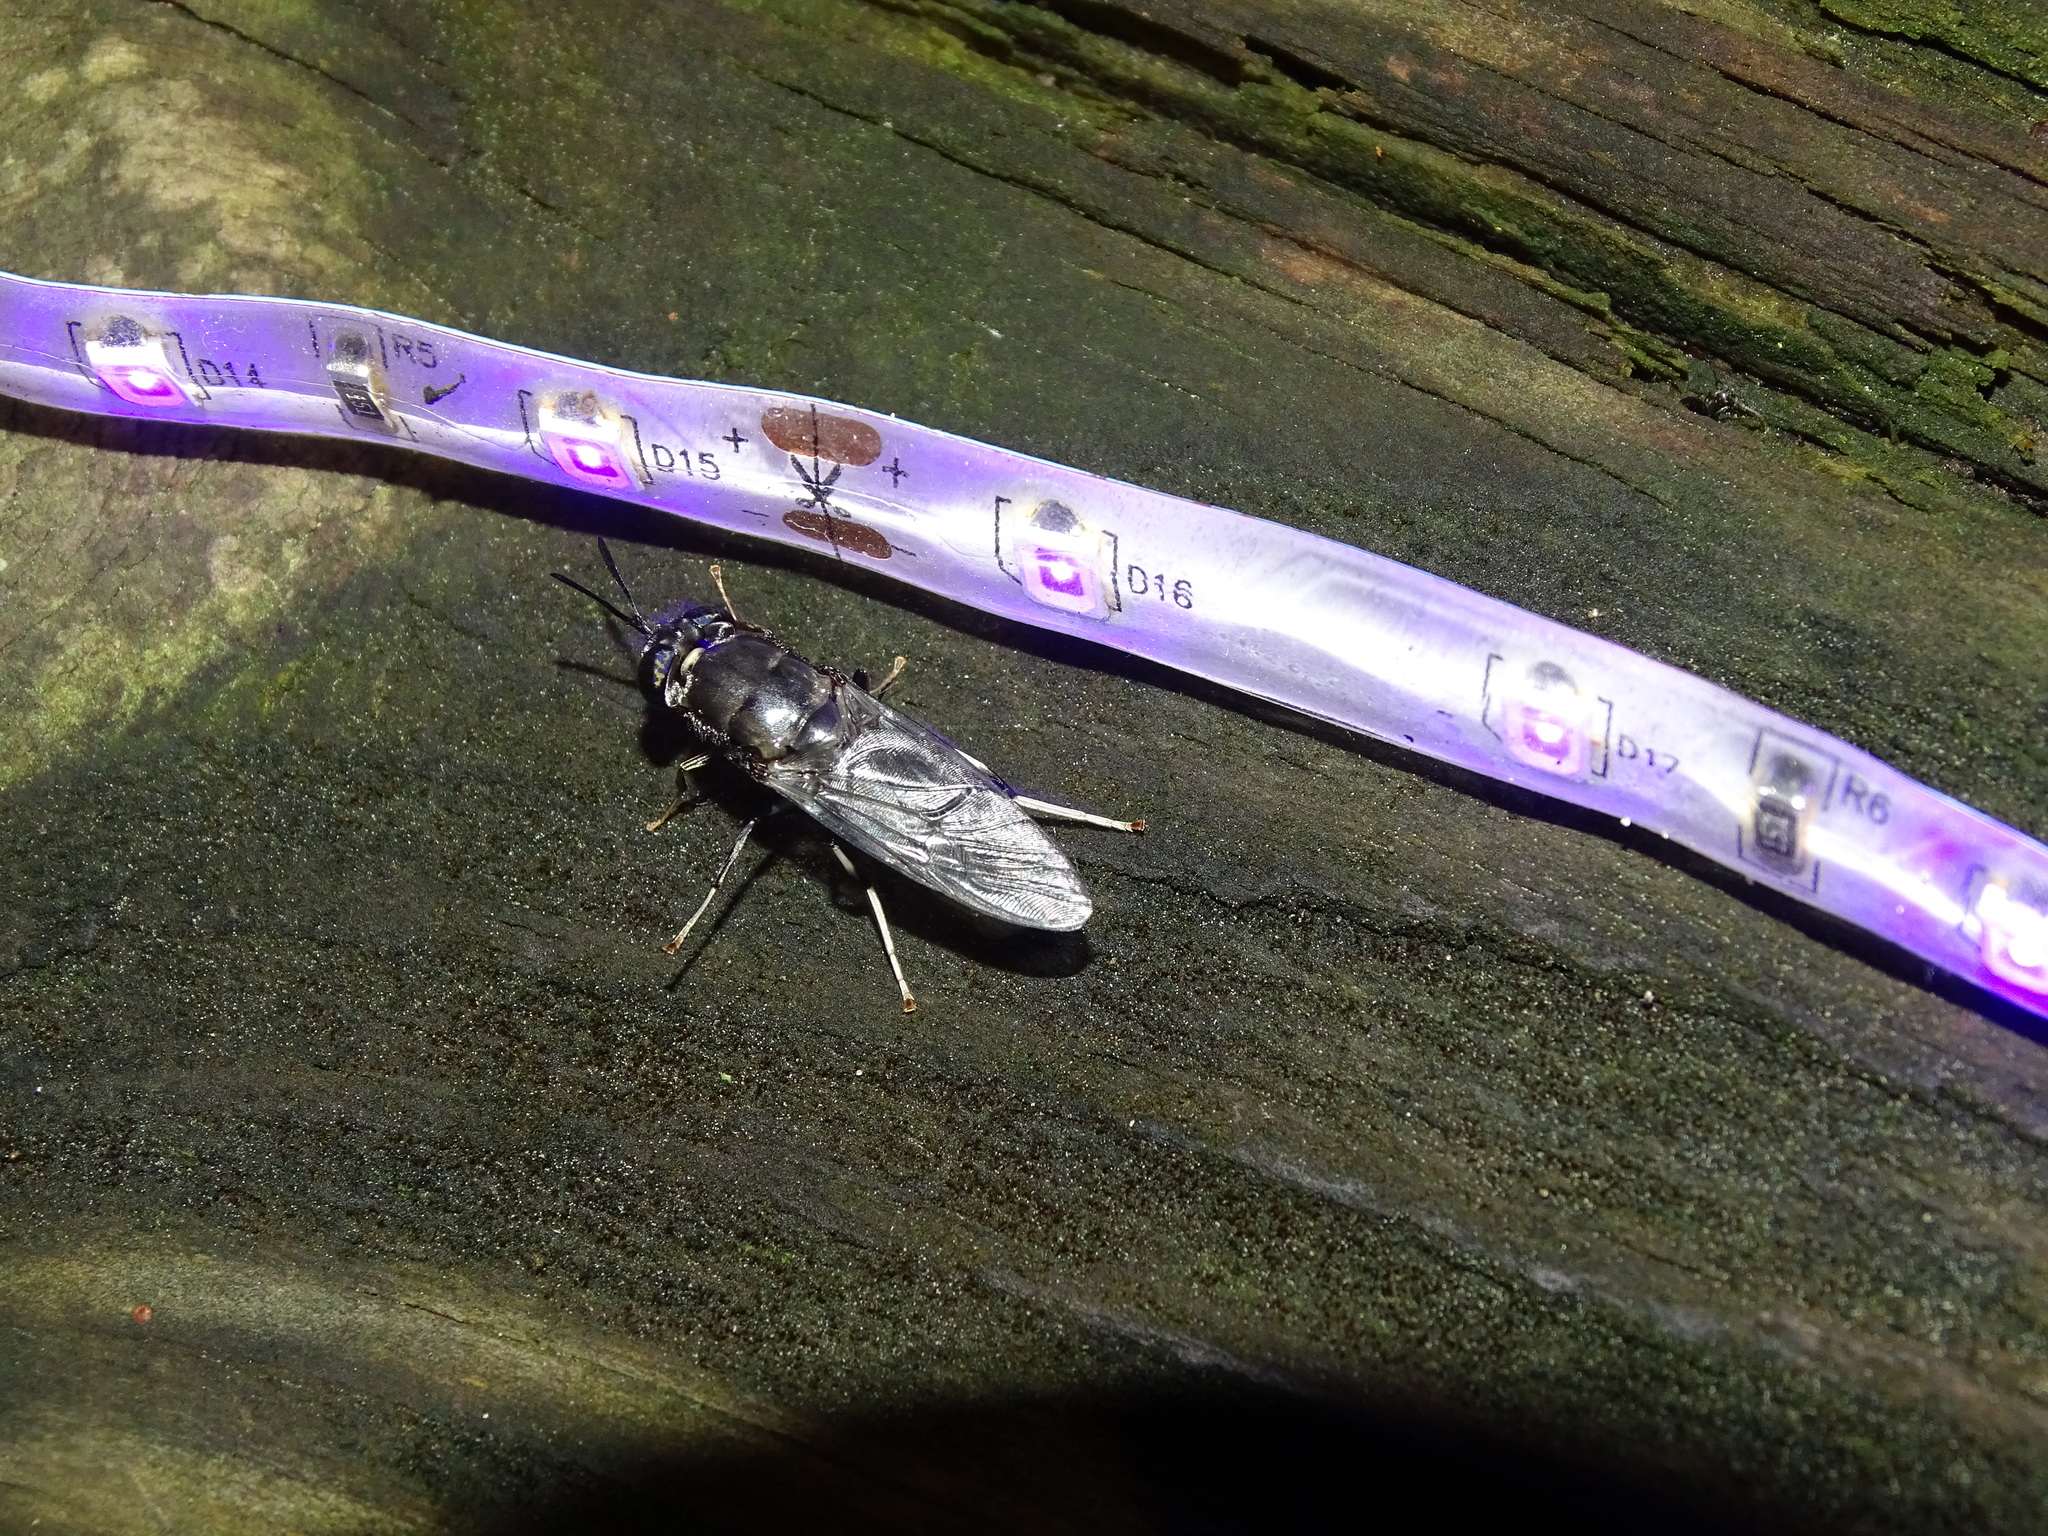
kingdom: Animalia
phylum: Arthropoda
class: Insecta
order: Diptera
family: Stratiomyidae
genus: Hermetia
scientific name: Hermetia illucens
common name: Black soldier fly
